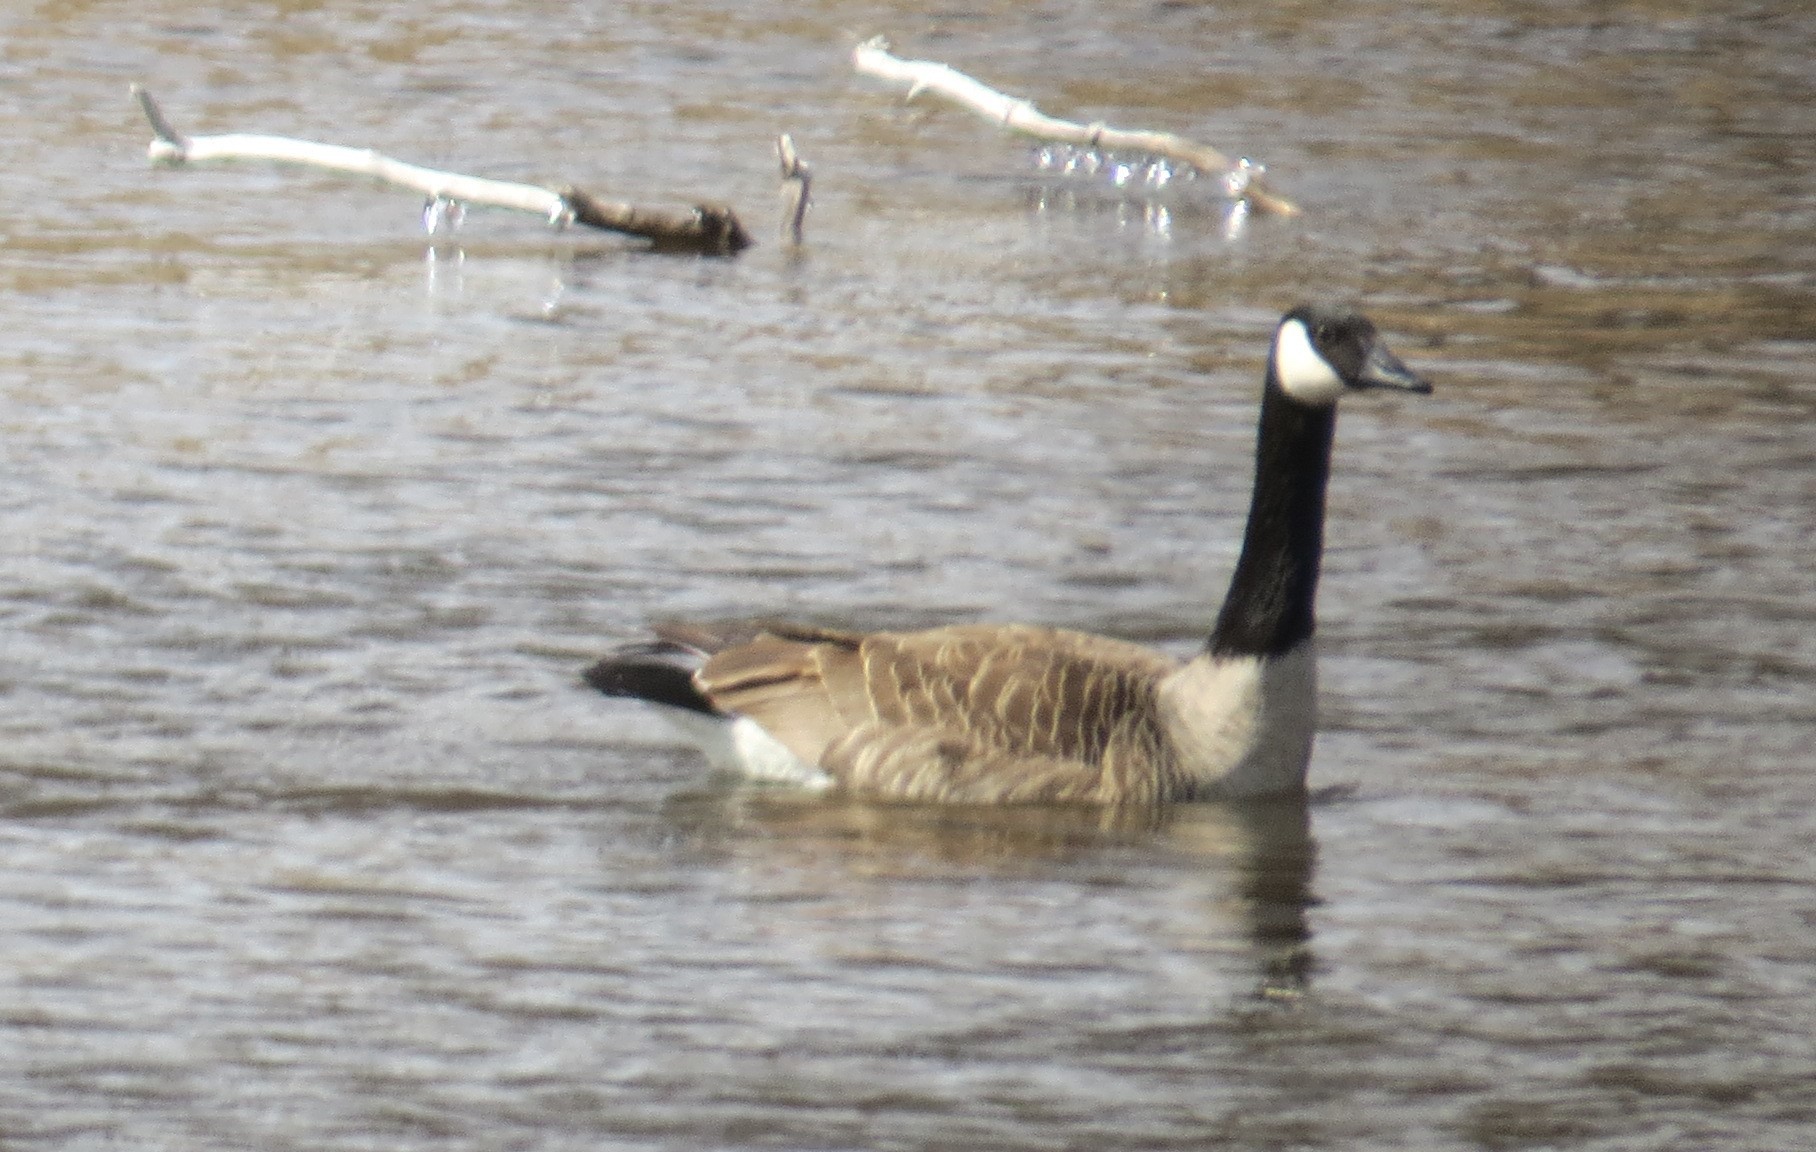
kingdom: Animalia
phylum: Chordata
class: Aves
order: Anseriformes
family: Anatidae
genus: Branta
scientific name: Branta canadensis
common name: Canada goose
